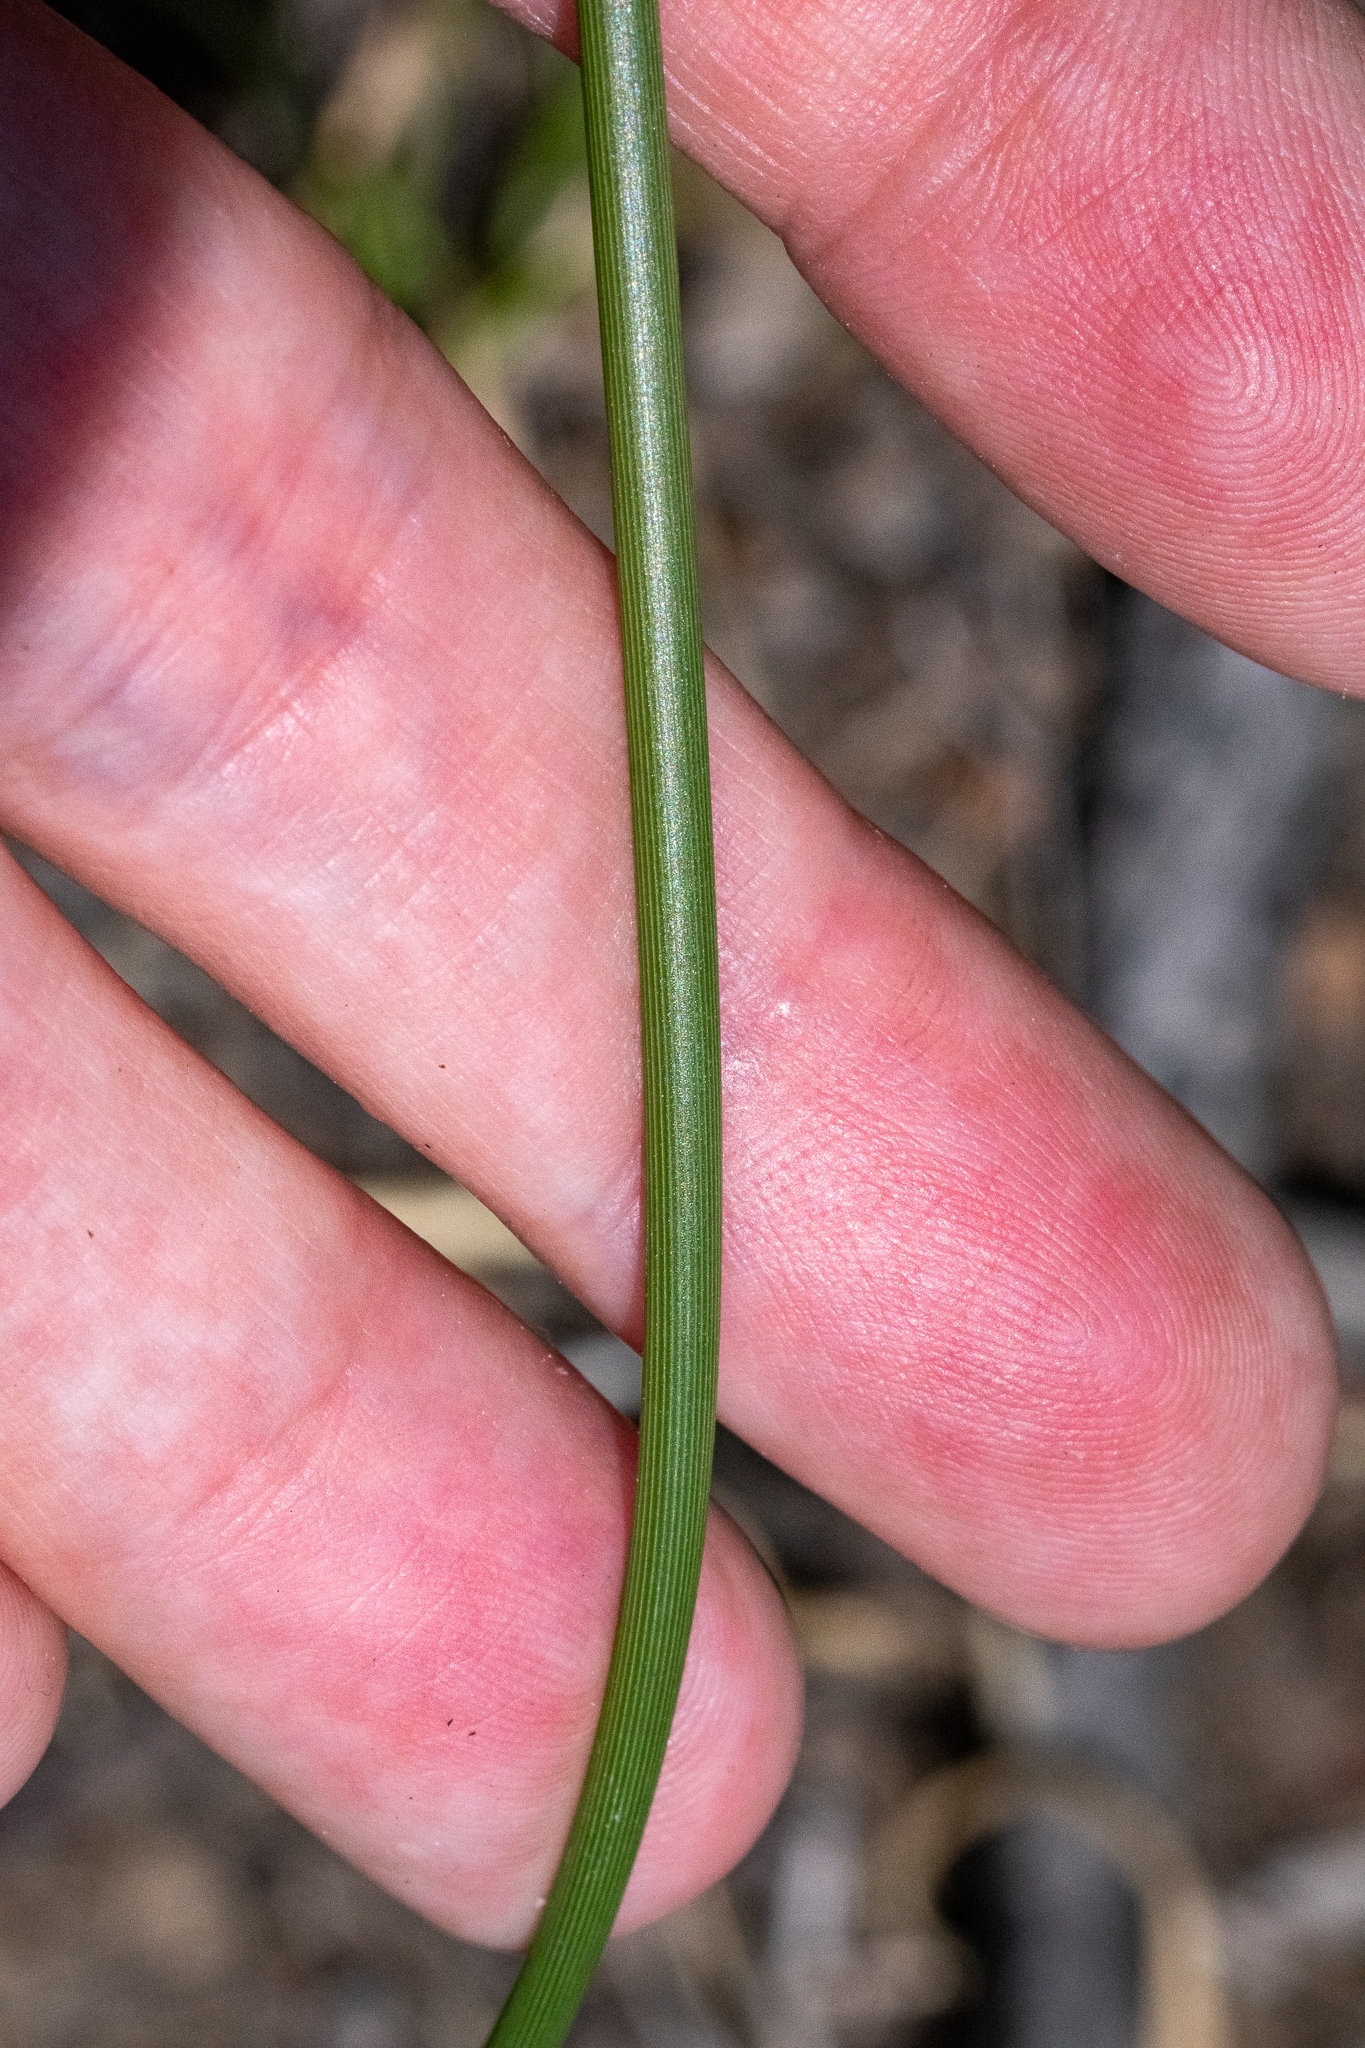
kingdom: Plantae
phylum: Tracheophyta
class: Liliopsida
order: Asparagales
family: Iridaceae
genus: Bobartia
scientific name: Bobartia indica
